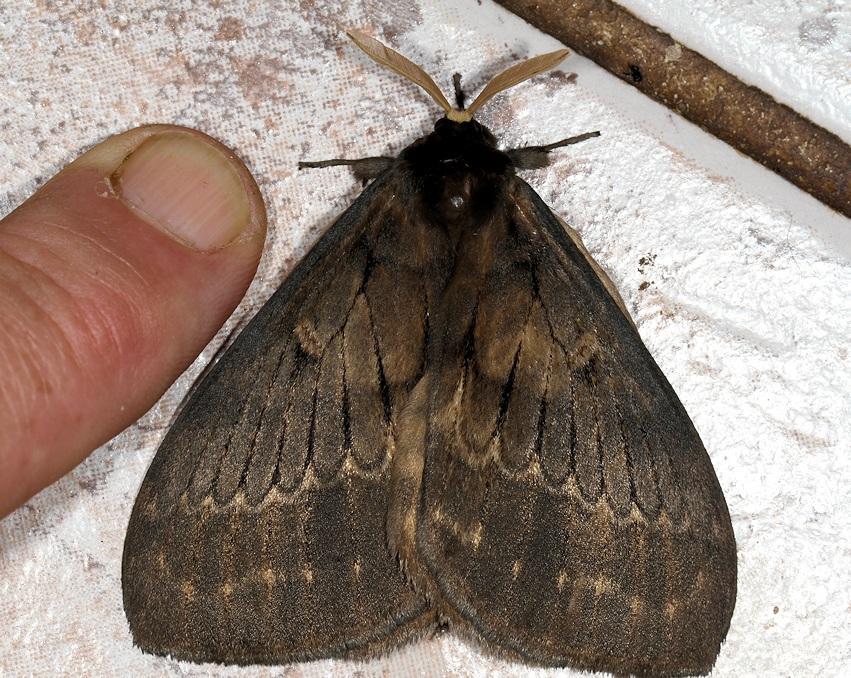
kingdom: Animalia
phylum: Arthropoda
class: Insecta
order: Lepidoptera
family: Eupterotidae
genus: Jana
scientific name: Jana tantalus
